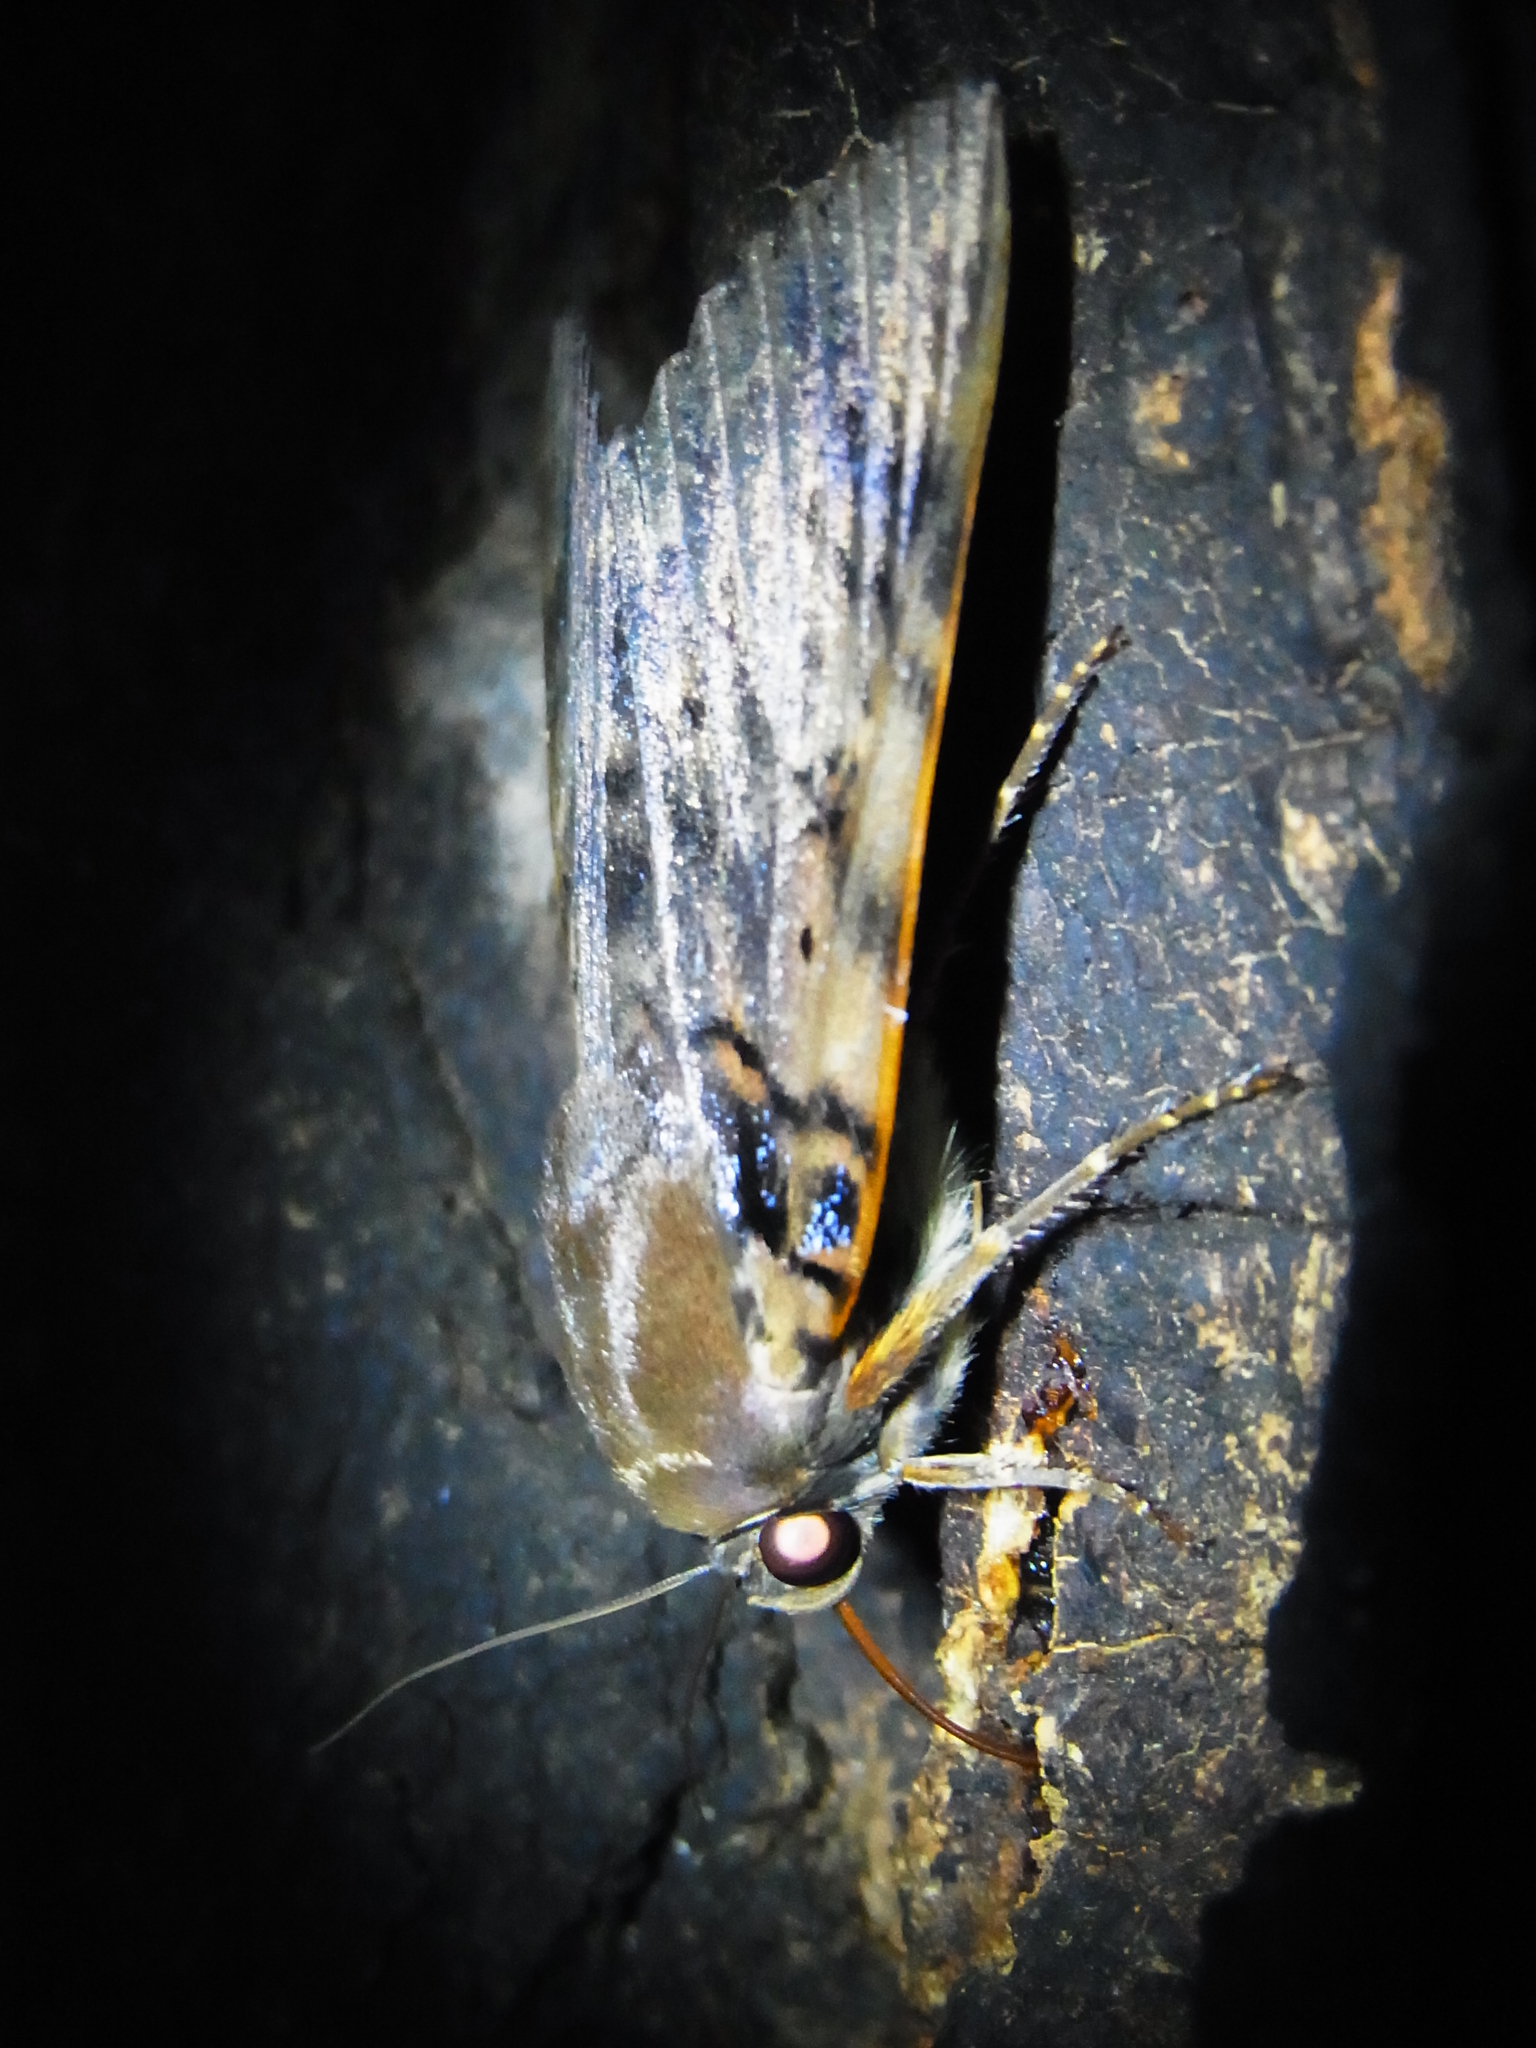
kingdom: Animalia
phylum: Arthropoda
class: Insecta
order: Lepidoptera
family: Erebidae
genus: Arcte
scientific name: Arcte coerula
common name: Ramie moth
